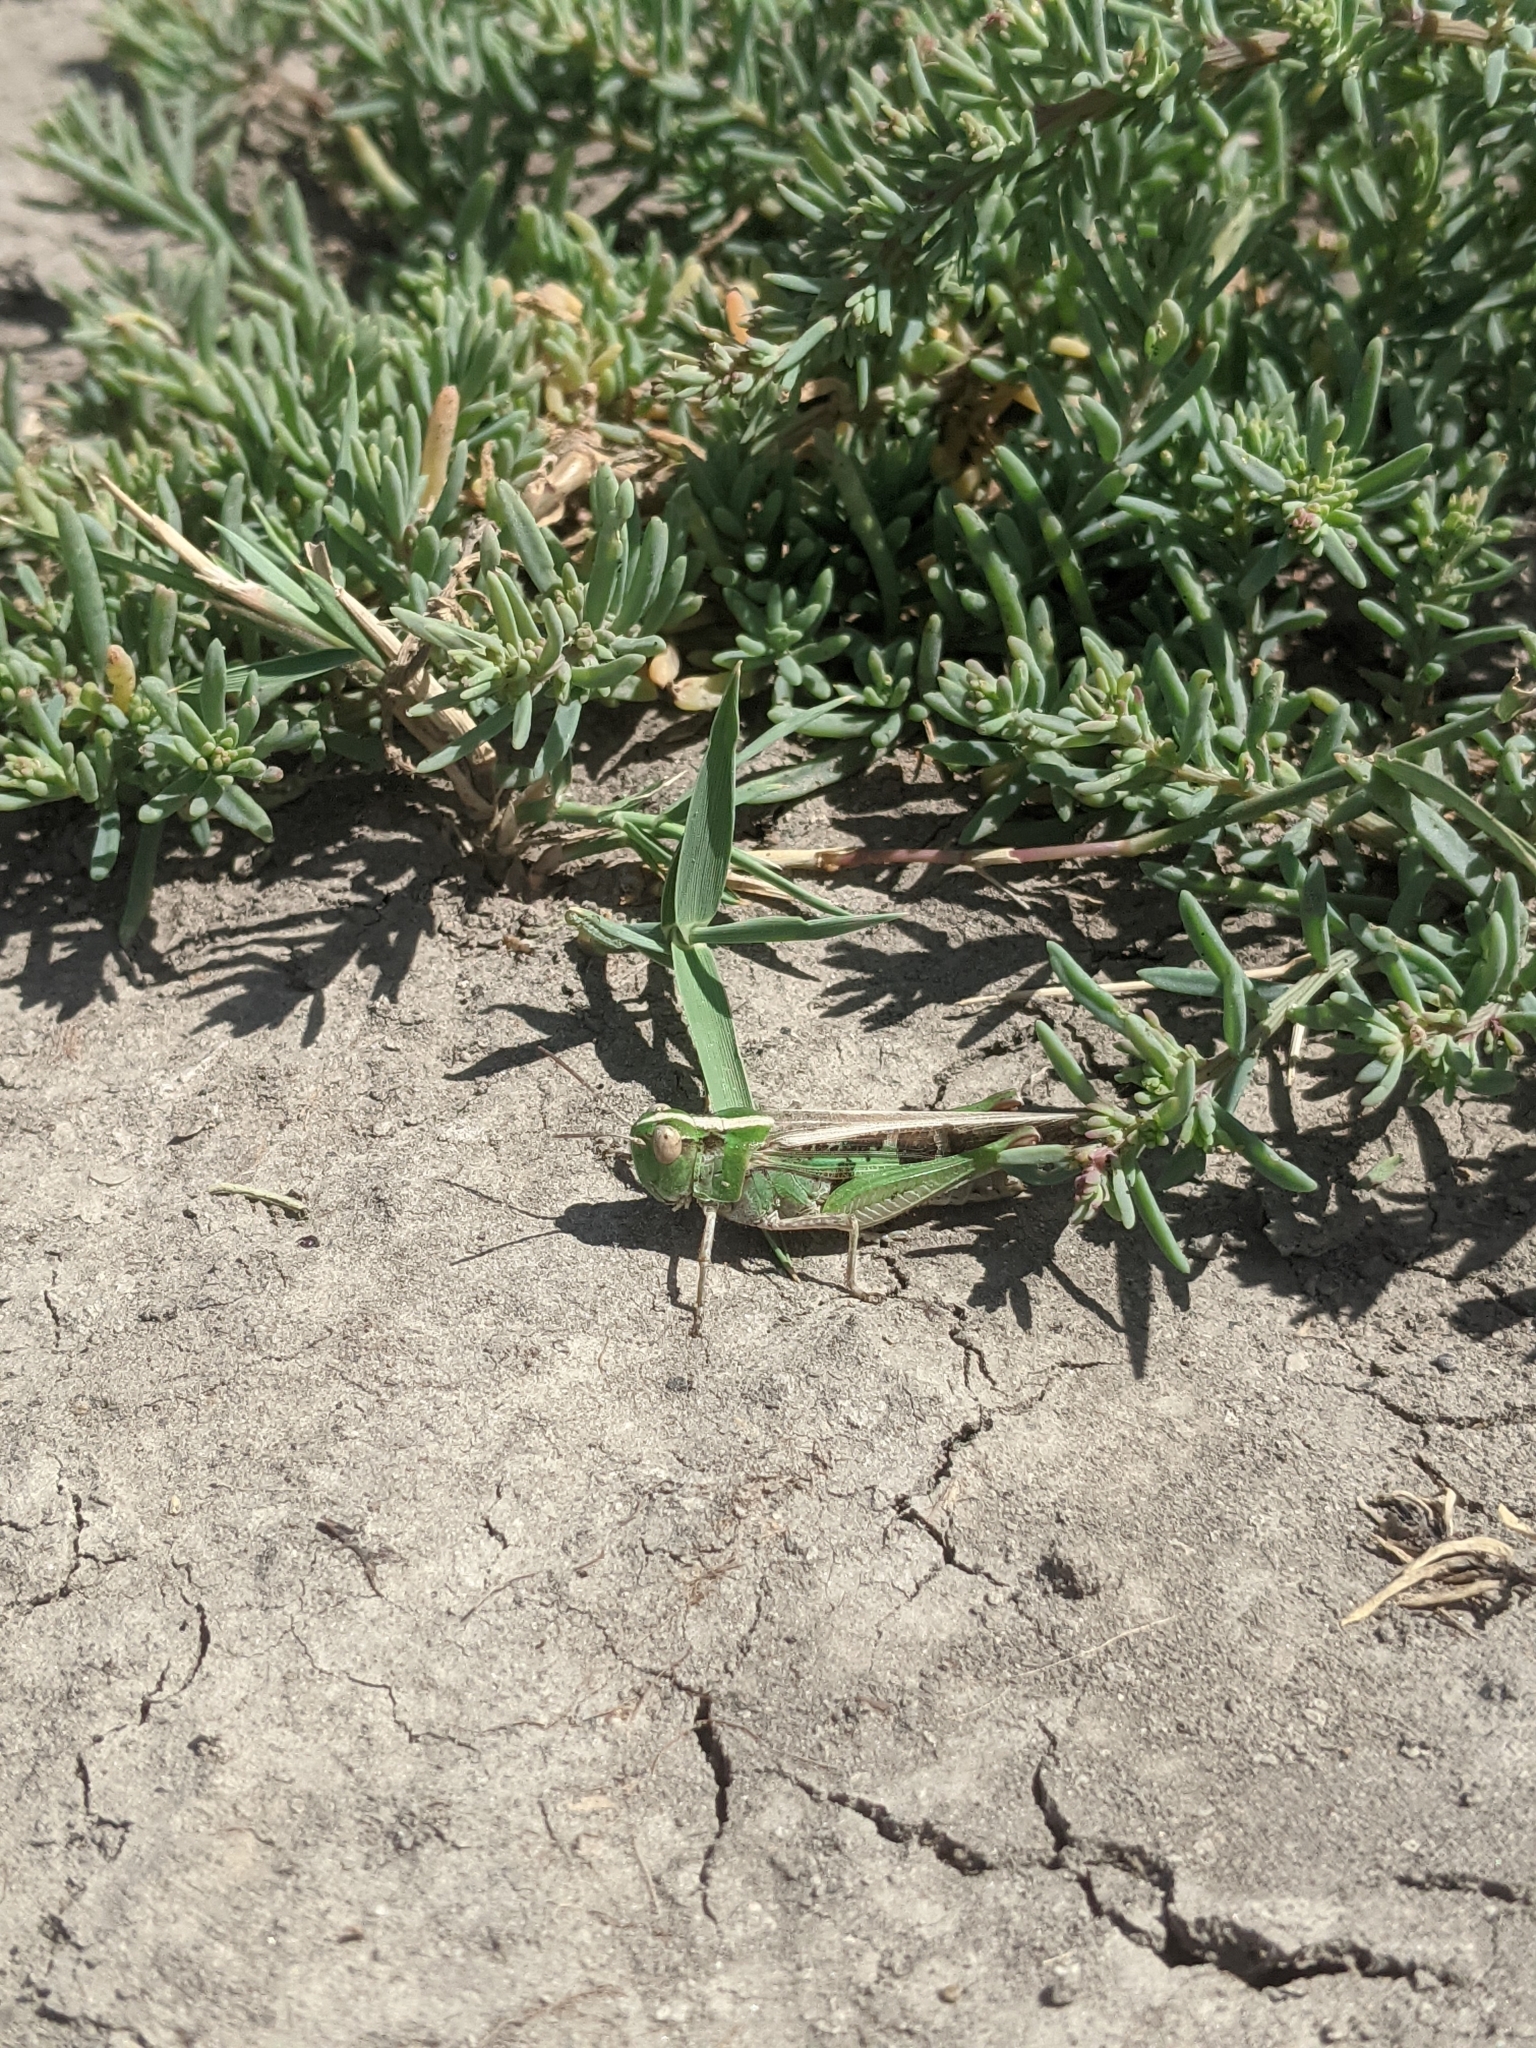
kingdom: Animalia
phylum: Arthropoda
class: Insecta
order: Orthoptera
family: Acrididae
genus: Aiolopus
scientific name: Aiolopus thalassinus
